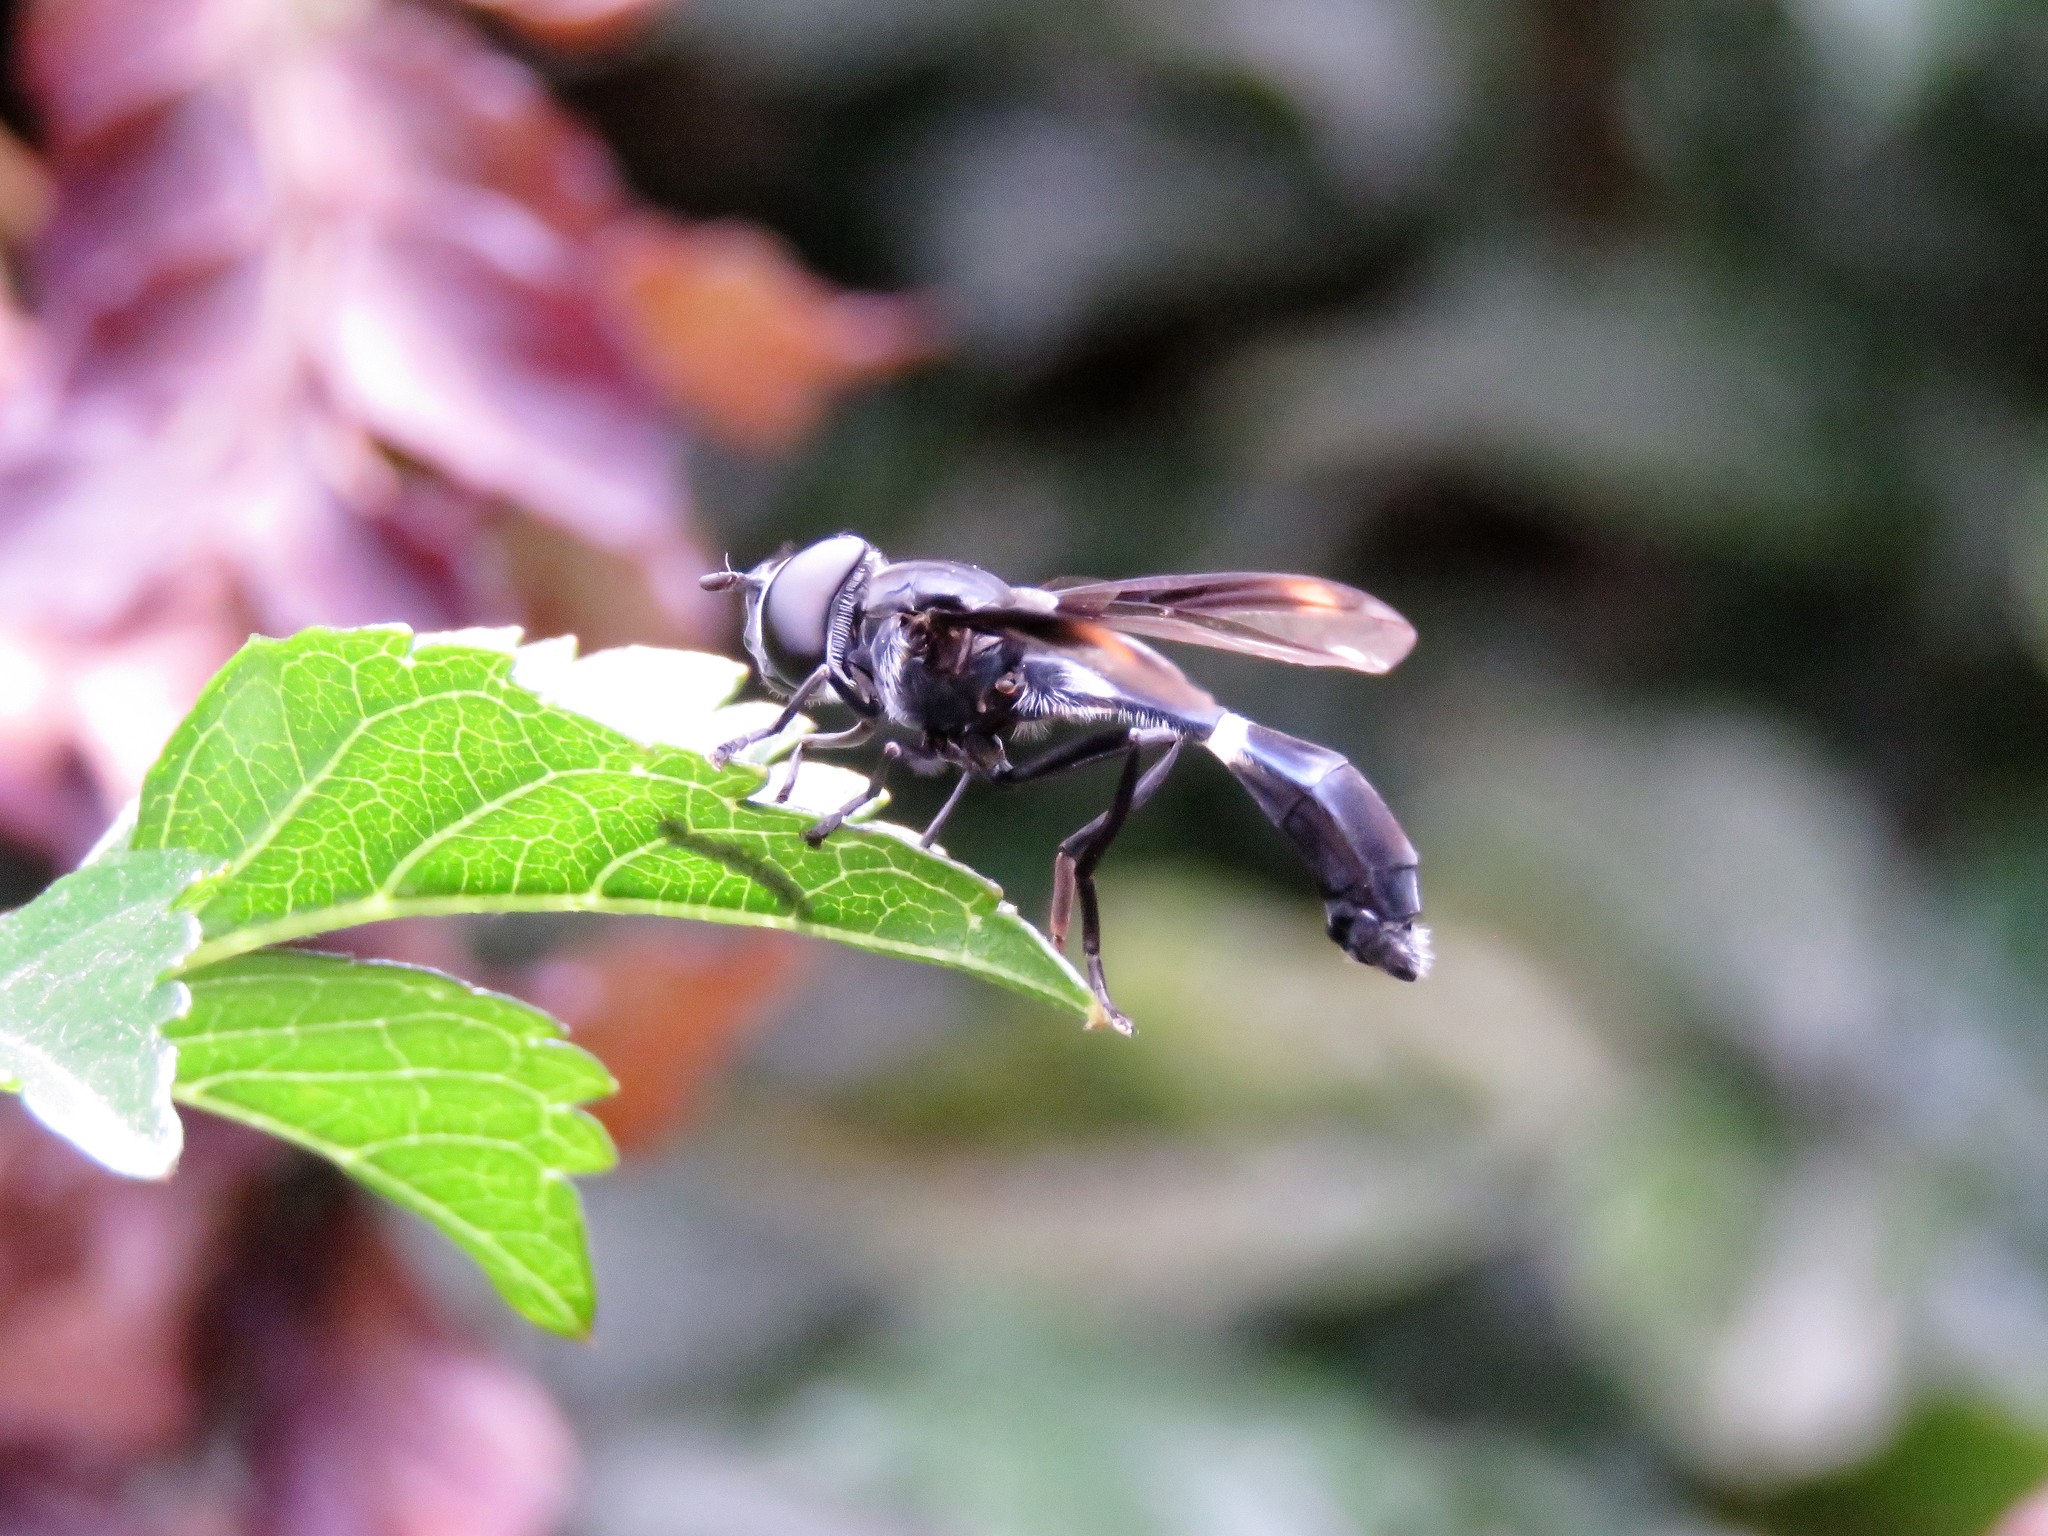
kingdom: Animalia
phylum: Arthropoda
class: Insecta
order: Diptera
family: Syrphidae
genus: Mimocalla
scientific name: Mimocalla giganteus
